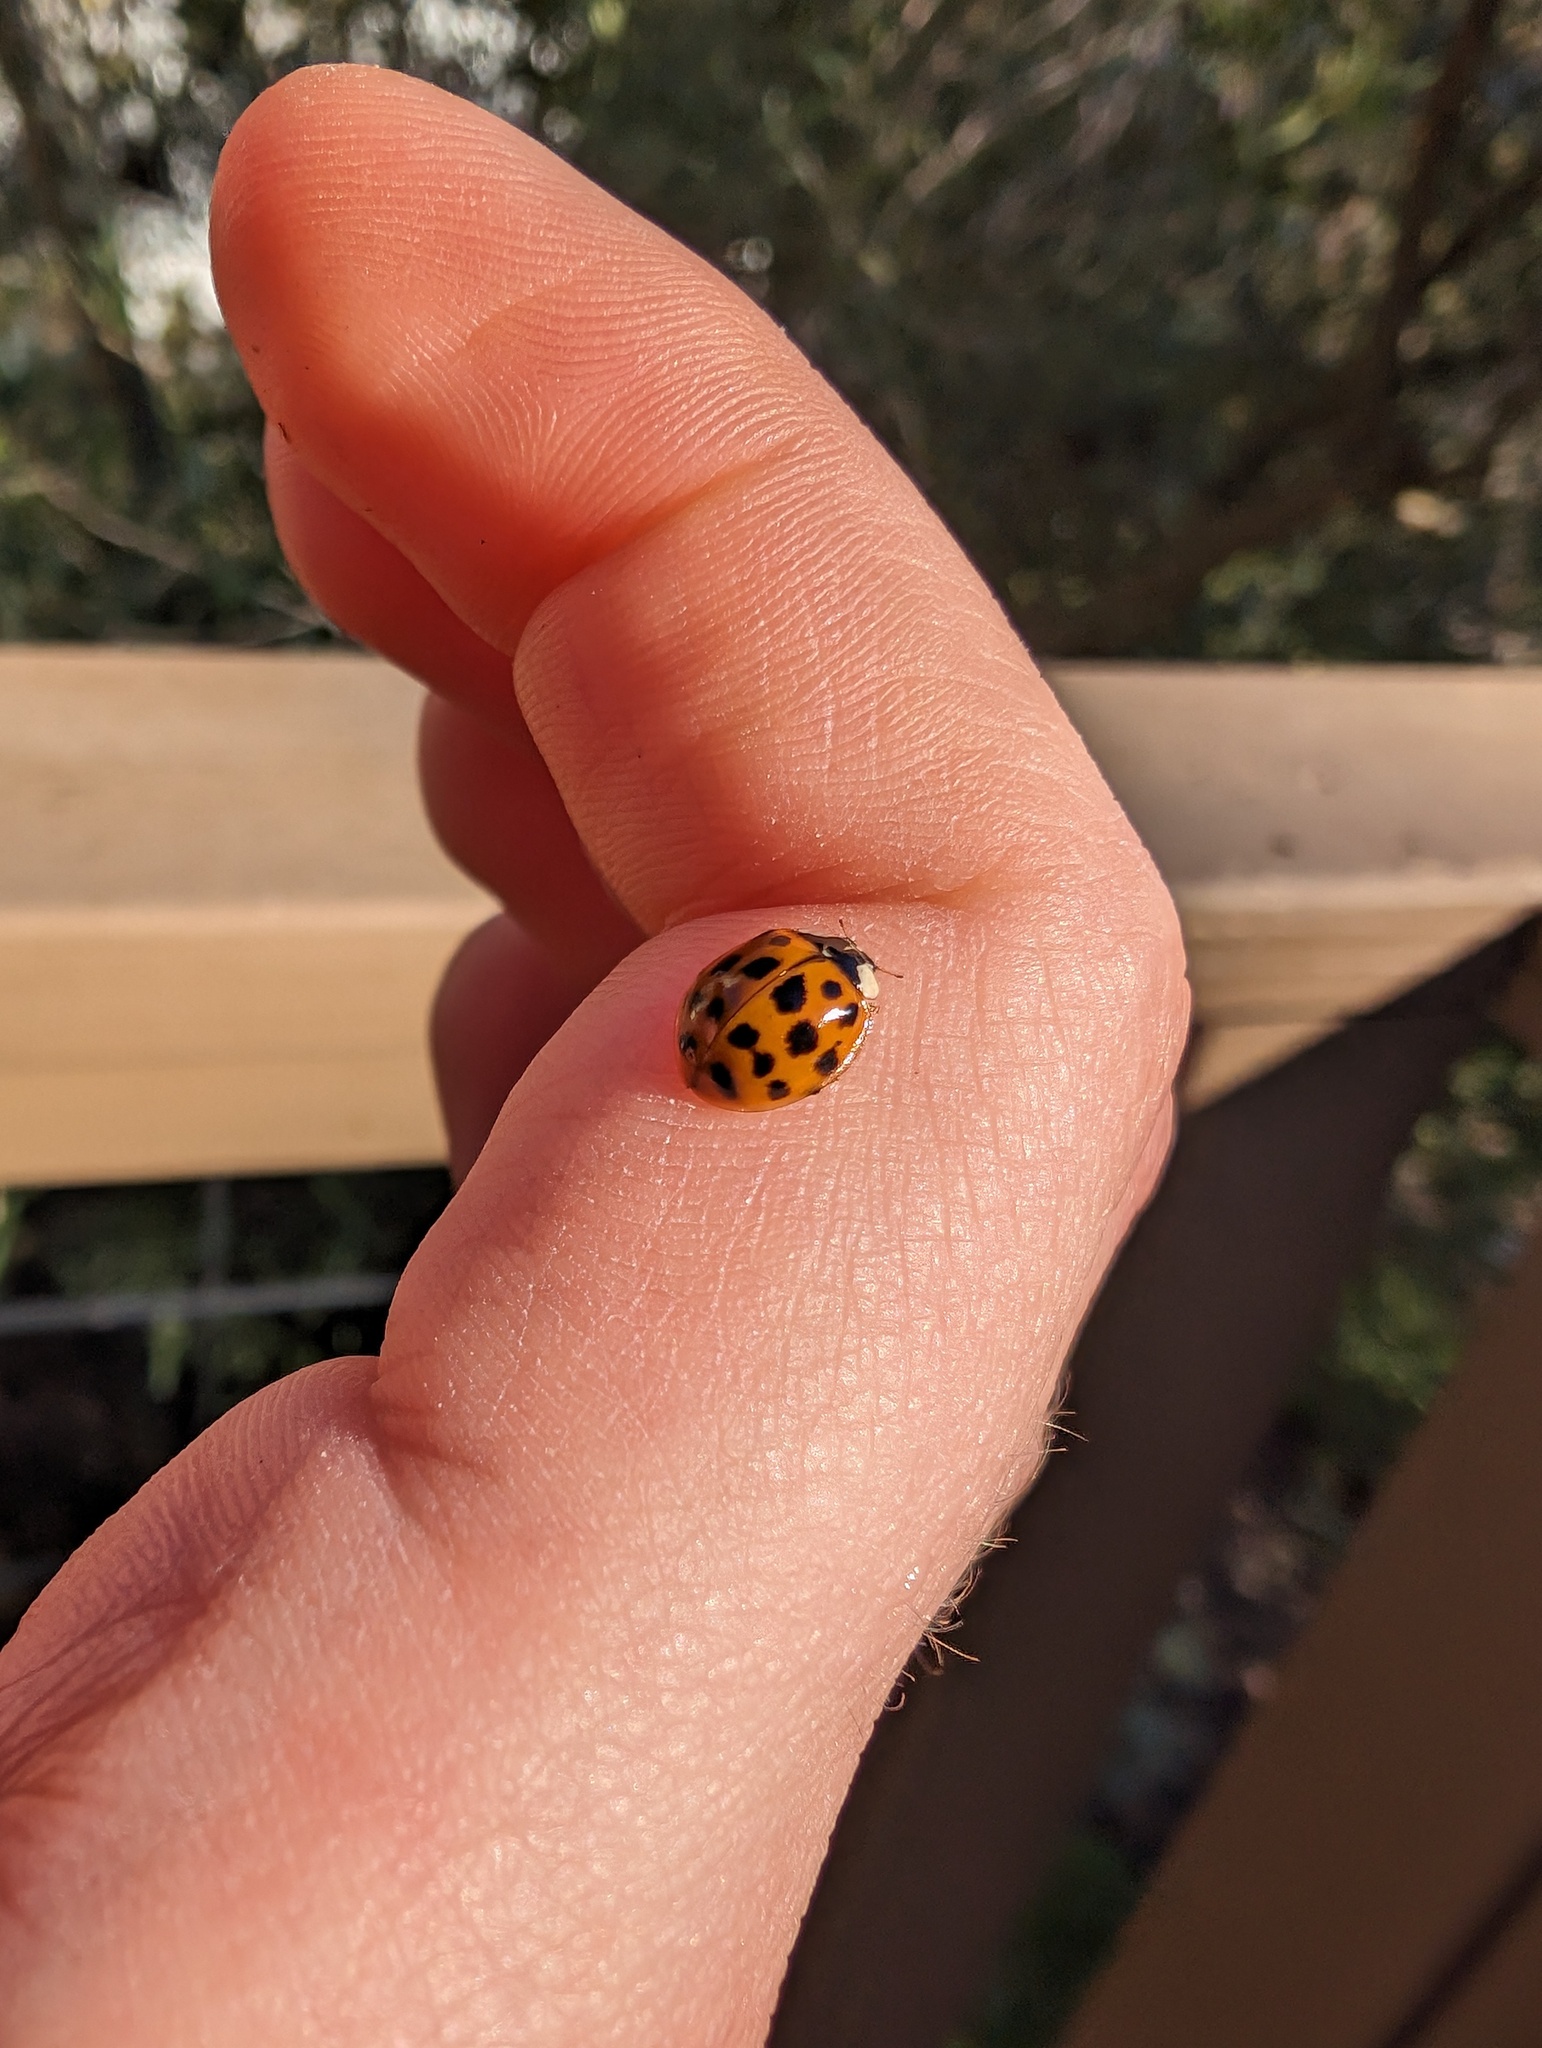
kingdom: Animalia
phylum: Arthropoda
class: Insecta
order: Coleoptera
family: Coccinellidae
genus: Harmonia
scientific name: Harmonia axyridis
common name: Harlequin ladybird
